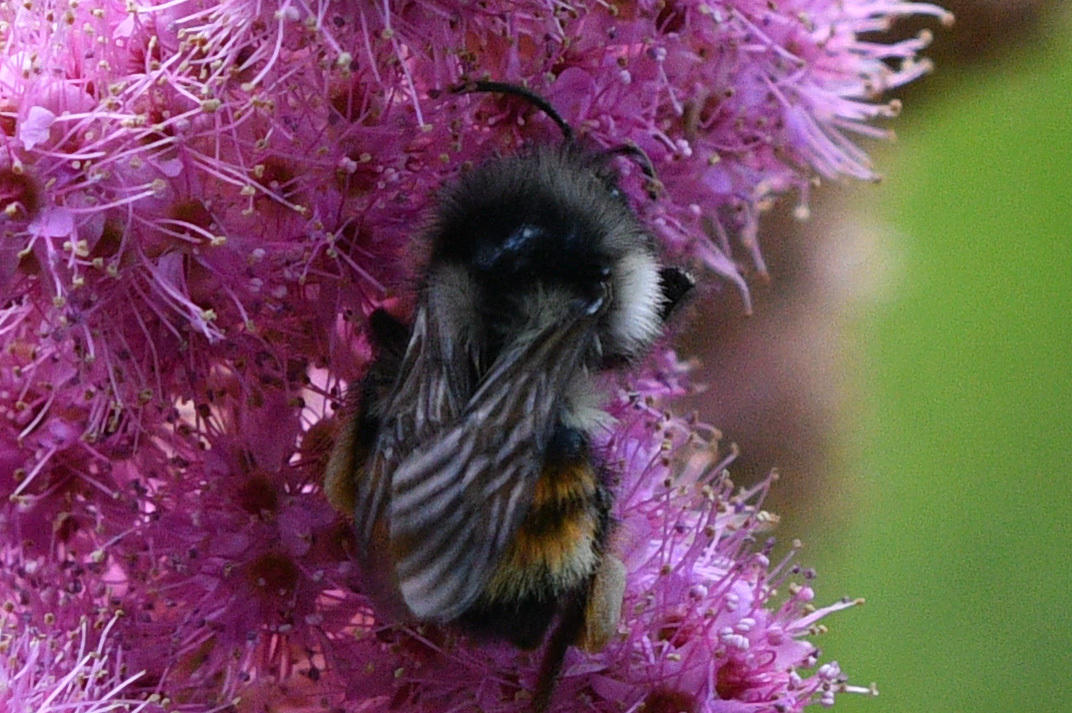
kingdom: Animalia
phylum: Arthropoda
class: Insecta
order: Hymenoptera
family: Apidae
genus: Bombus
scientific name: Bombus vancouverensis
